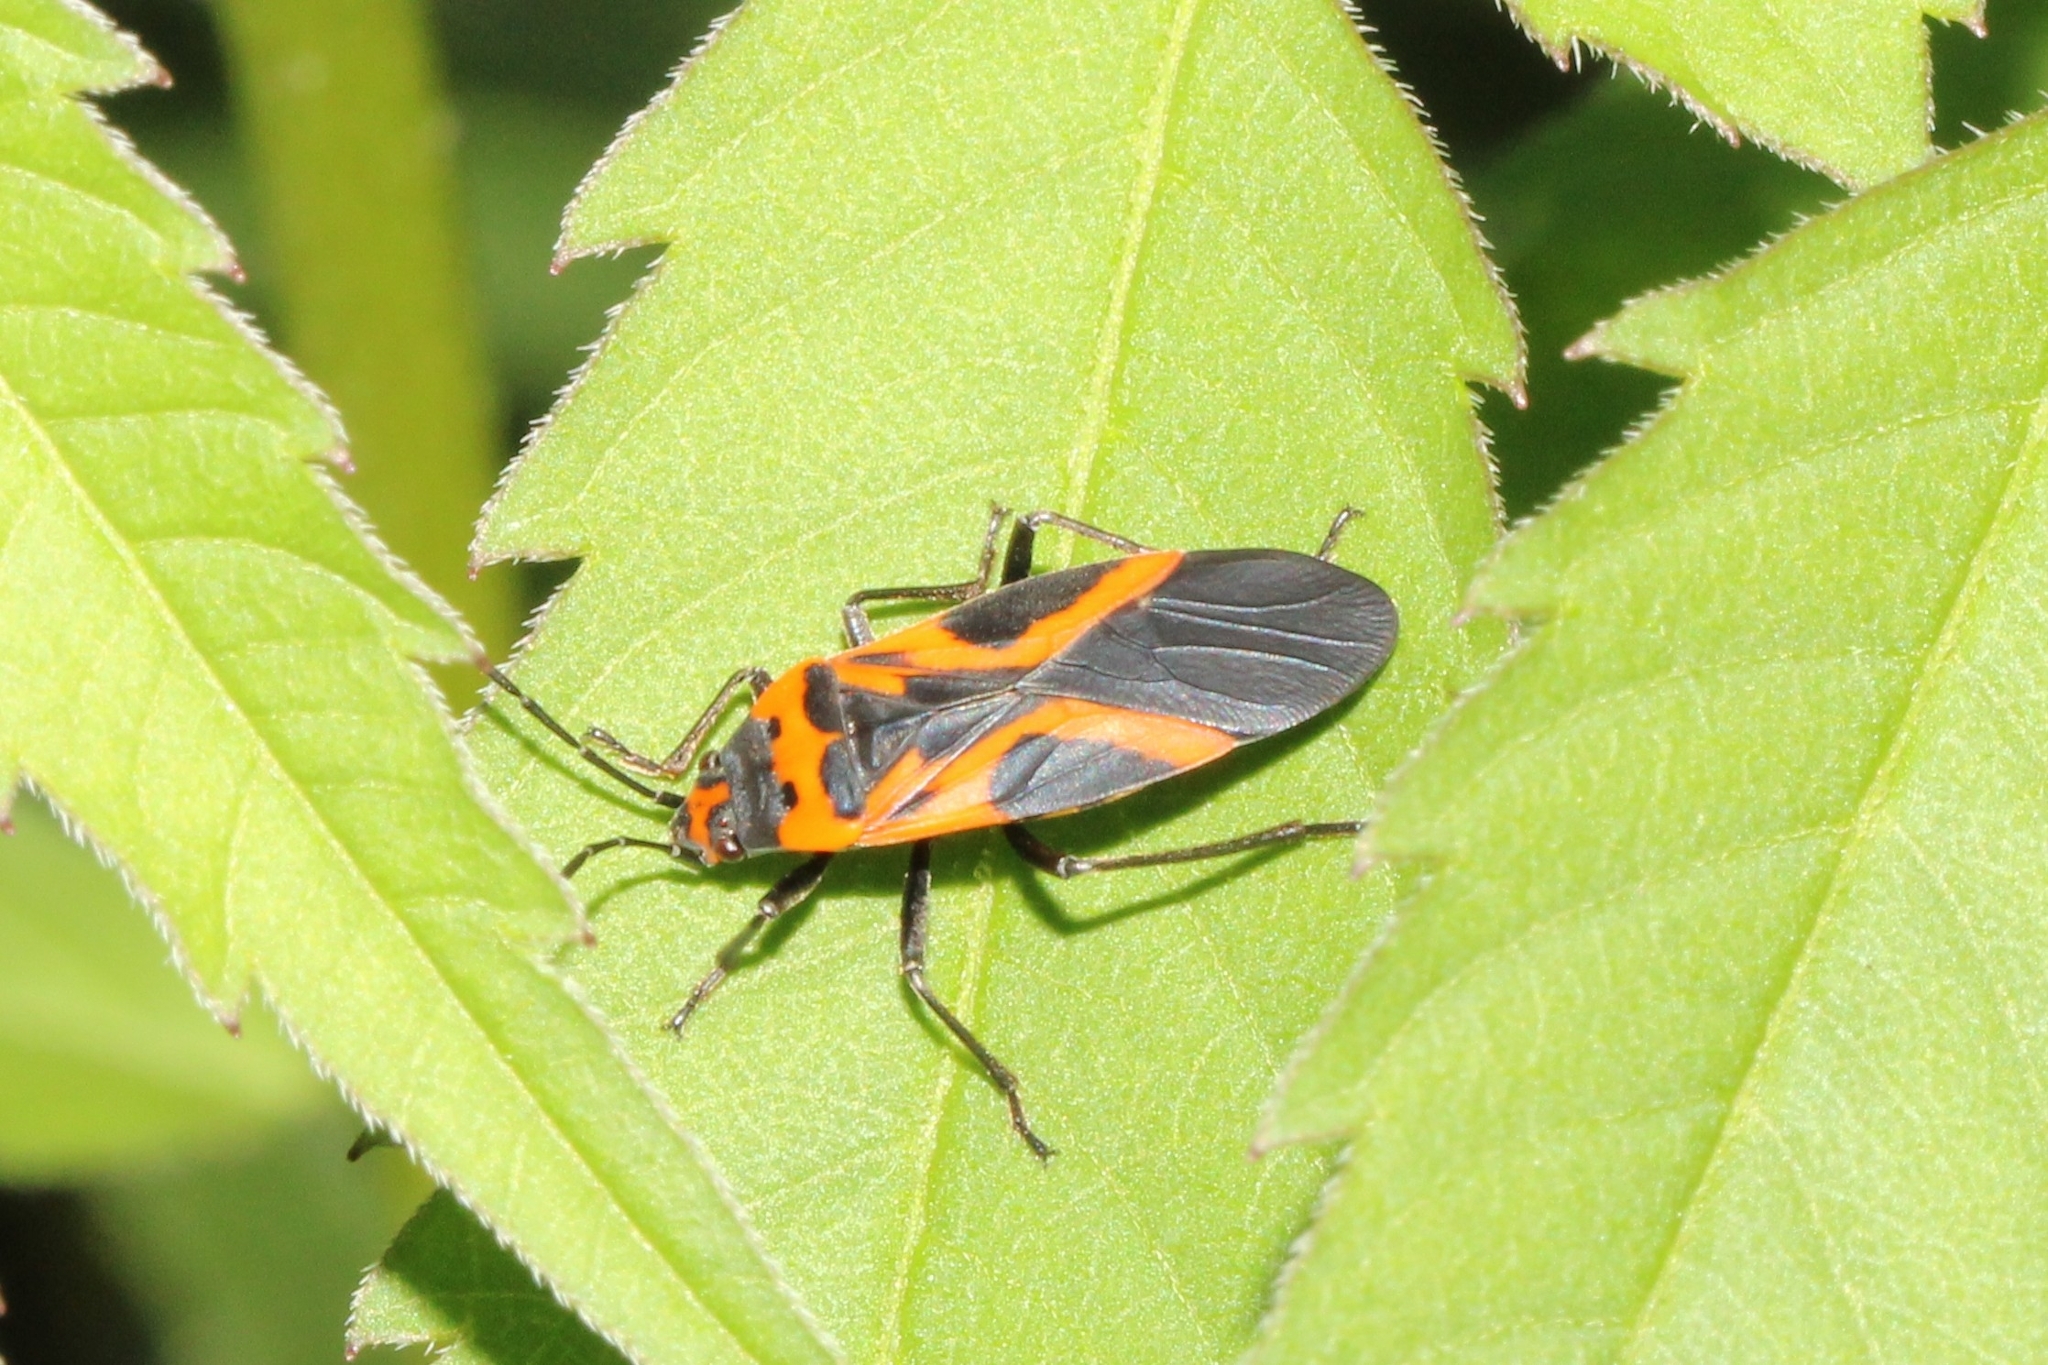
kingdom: Animalia
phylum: Arthropoda
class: Insecta
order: Hemiptera
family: Lygaeidae
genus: Lygaeus
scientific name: Lygaeus turcicus
